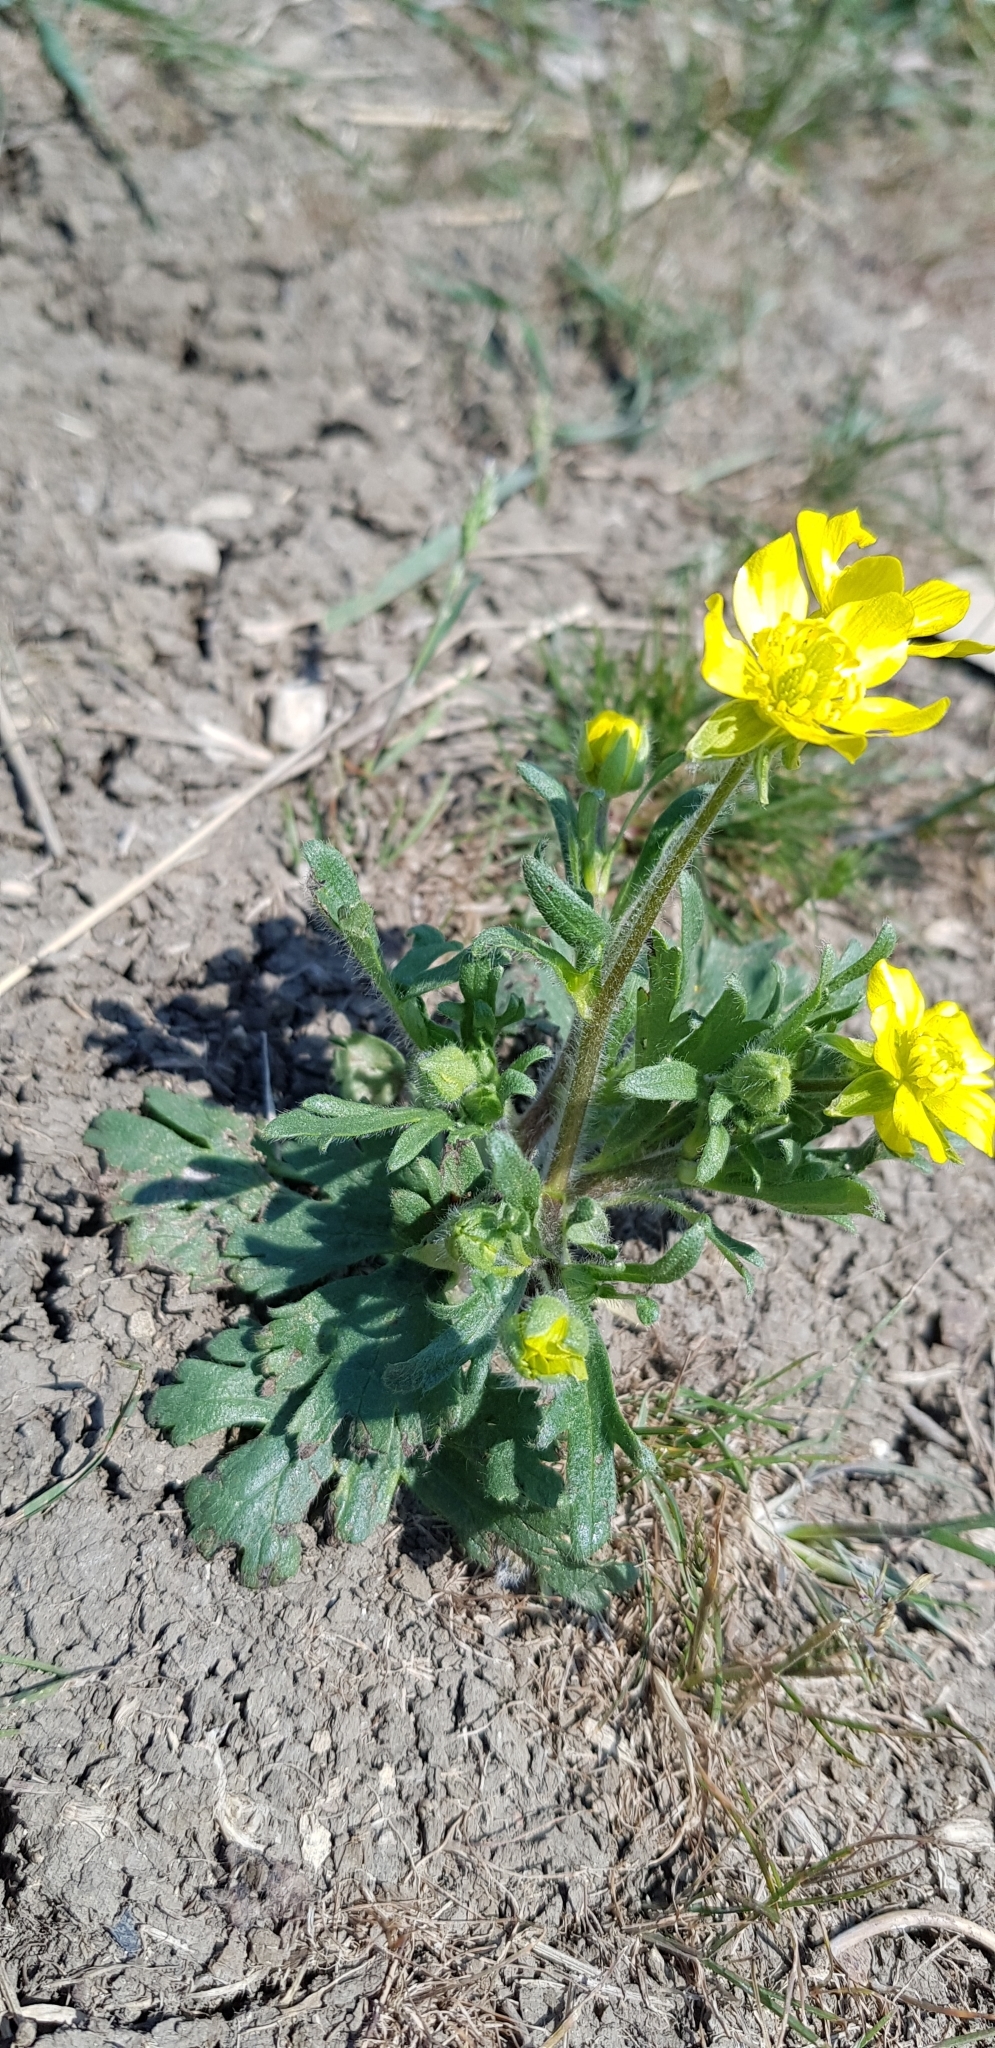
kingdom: Plantae
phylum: Tracheophyta
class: Magnoliopsida
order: Ranunculales
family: Ranunculaceae
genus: Ranunculus
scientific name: Ranunculus oxyspermus
